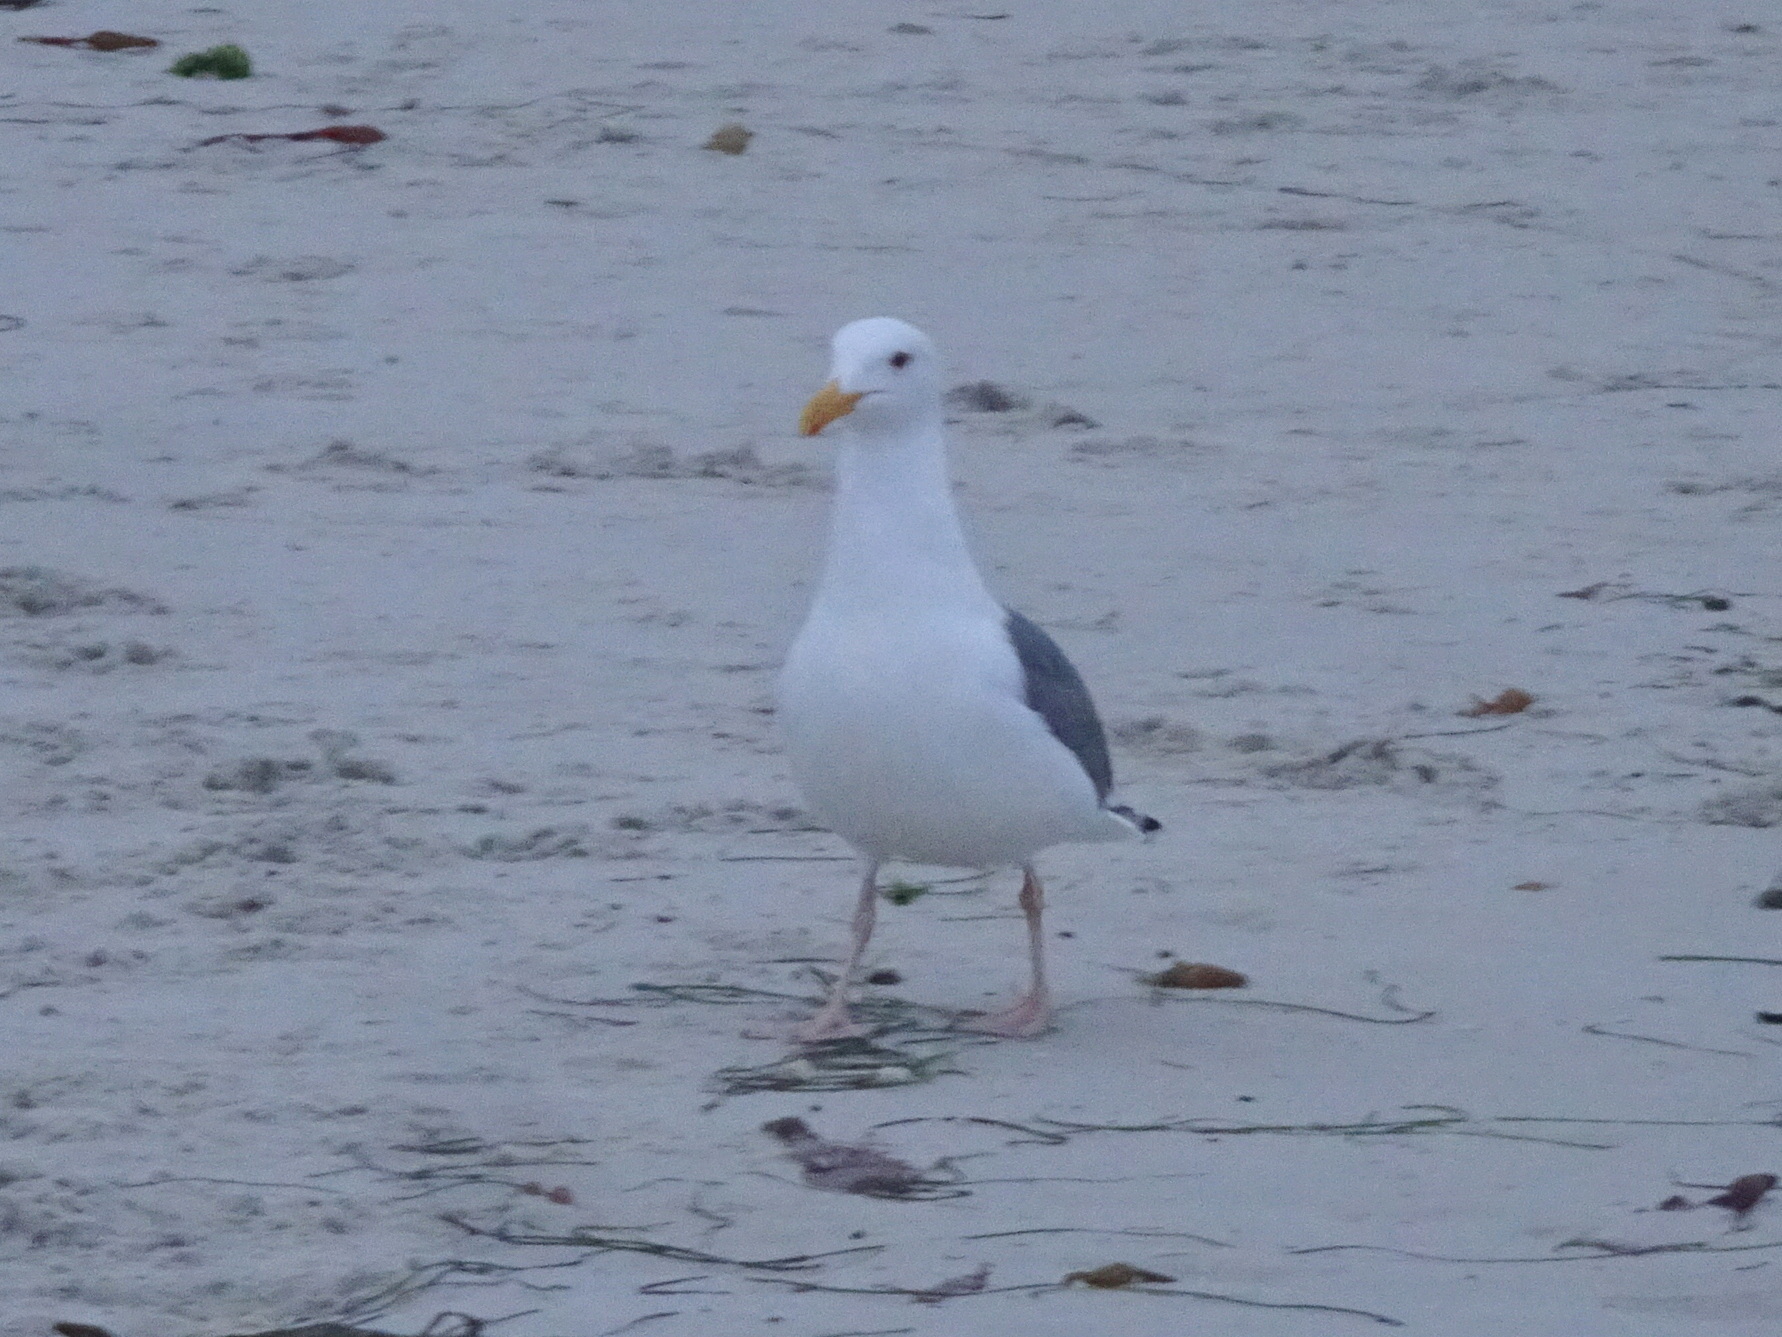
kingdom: Animalia
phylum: Chordata
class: Aves
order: Charadriiformes
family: Laridae
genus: Larus
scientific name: Larus occidentalis
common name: Western gull
